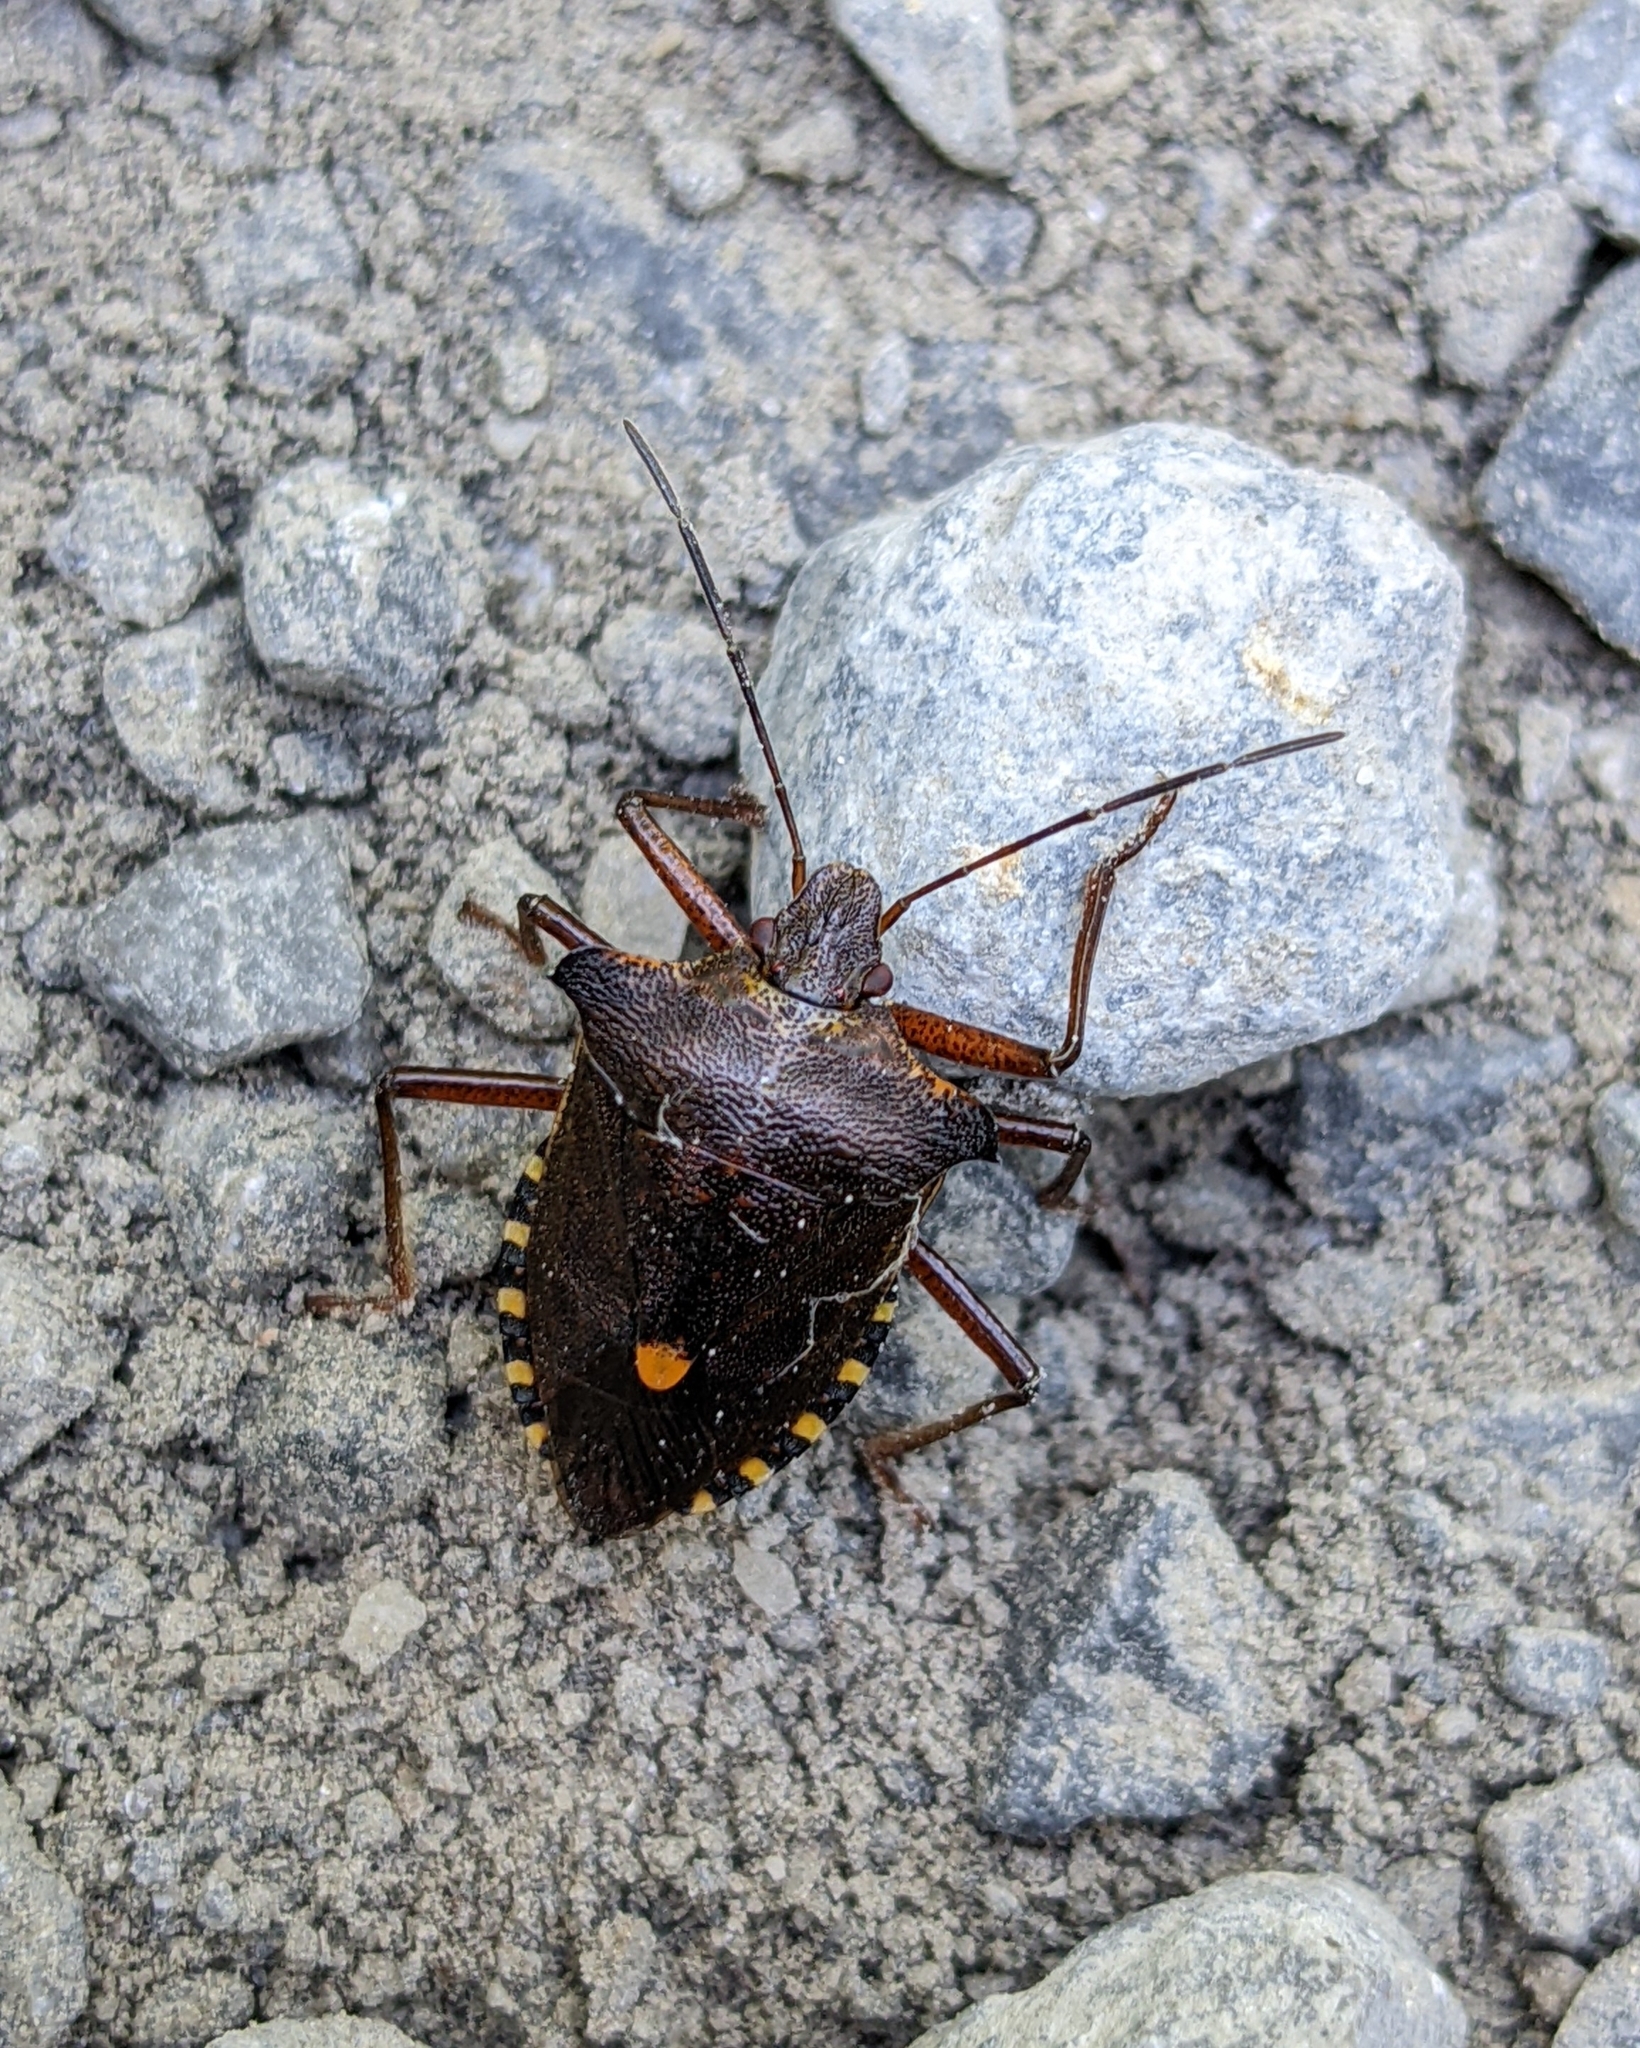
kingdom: Animalia
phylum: Arthropoda
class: Insecta
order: Hemiptera
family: Pentatomidae
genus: Pentatoma
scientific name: Pentatoma rufipes
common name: Forest bug
